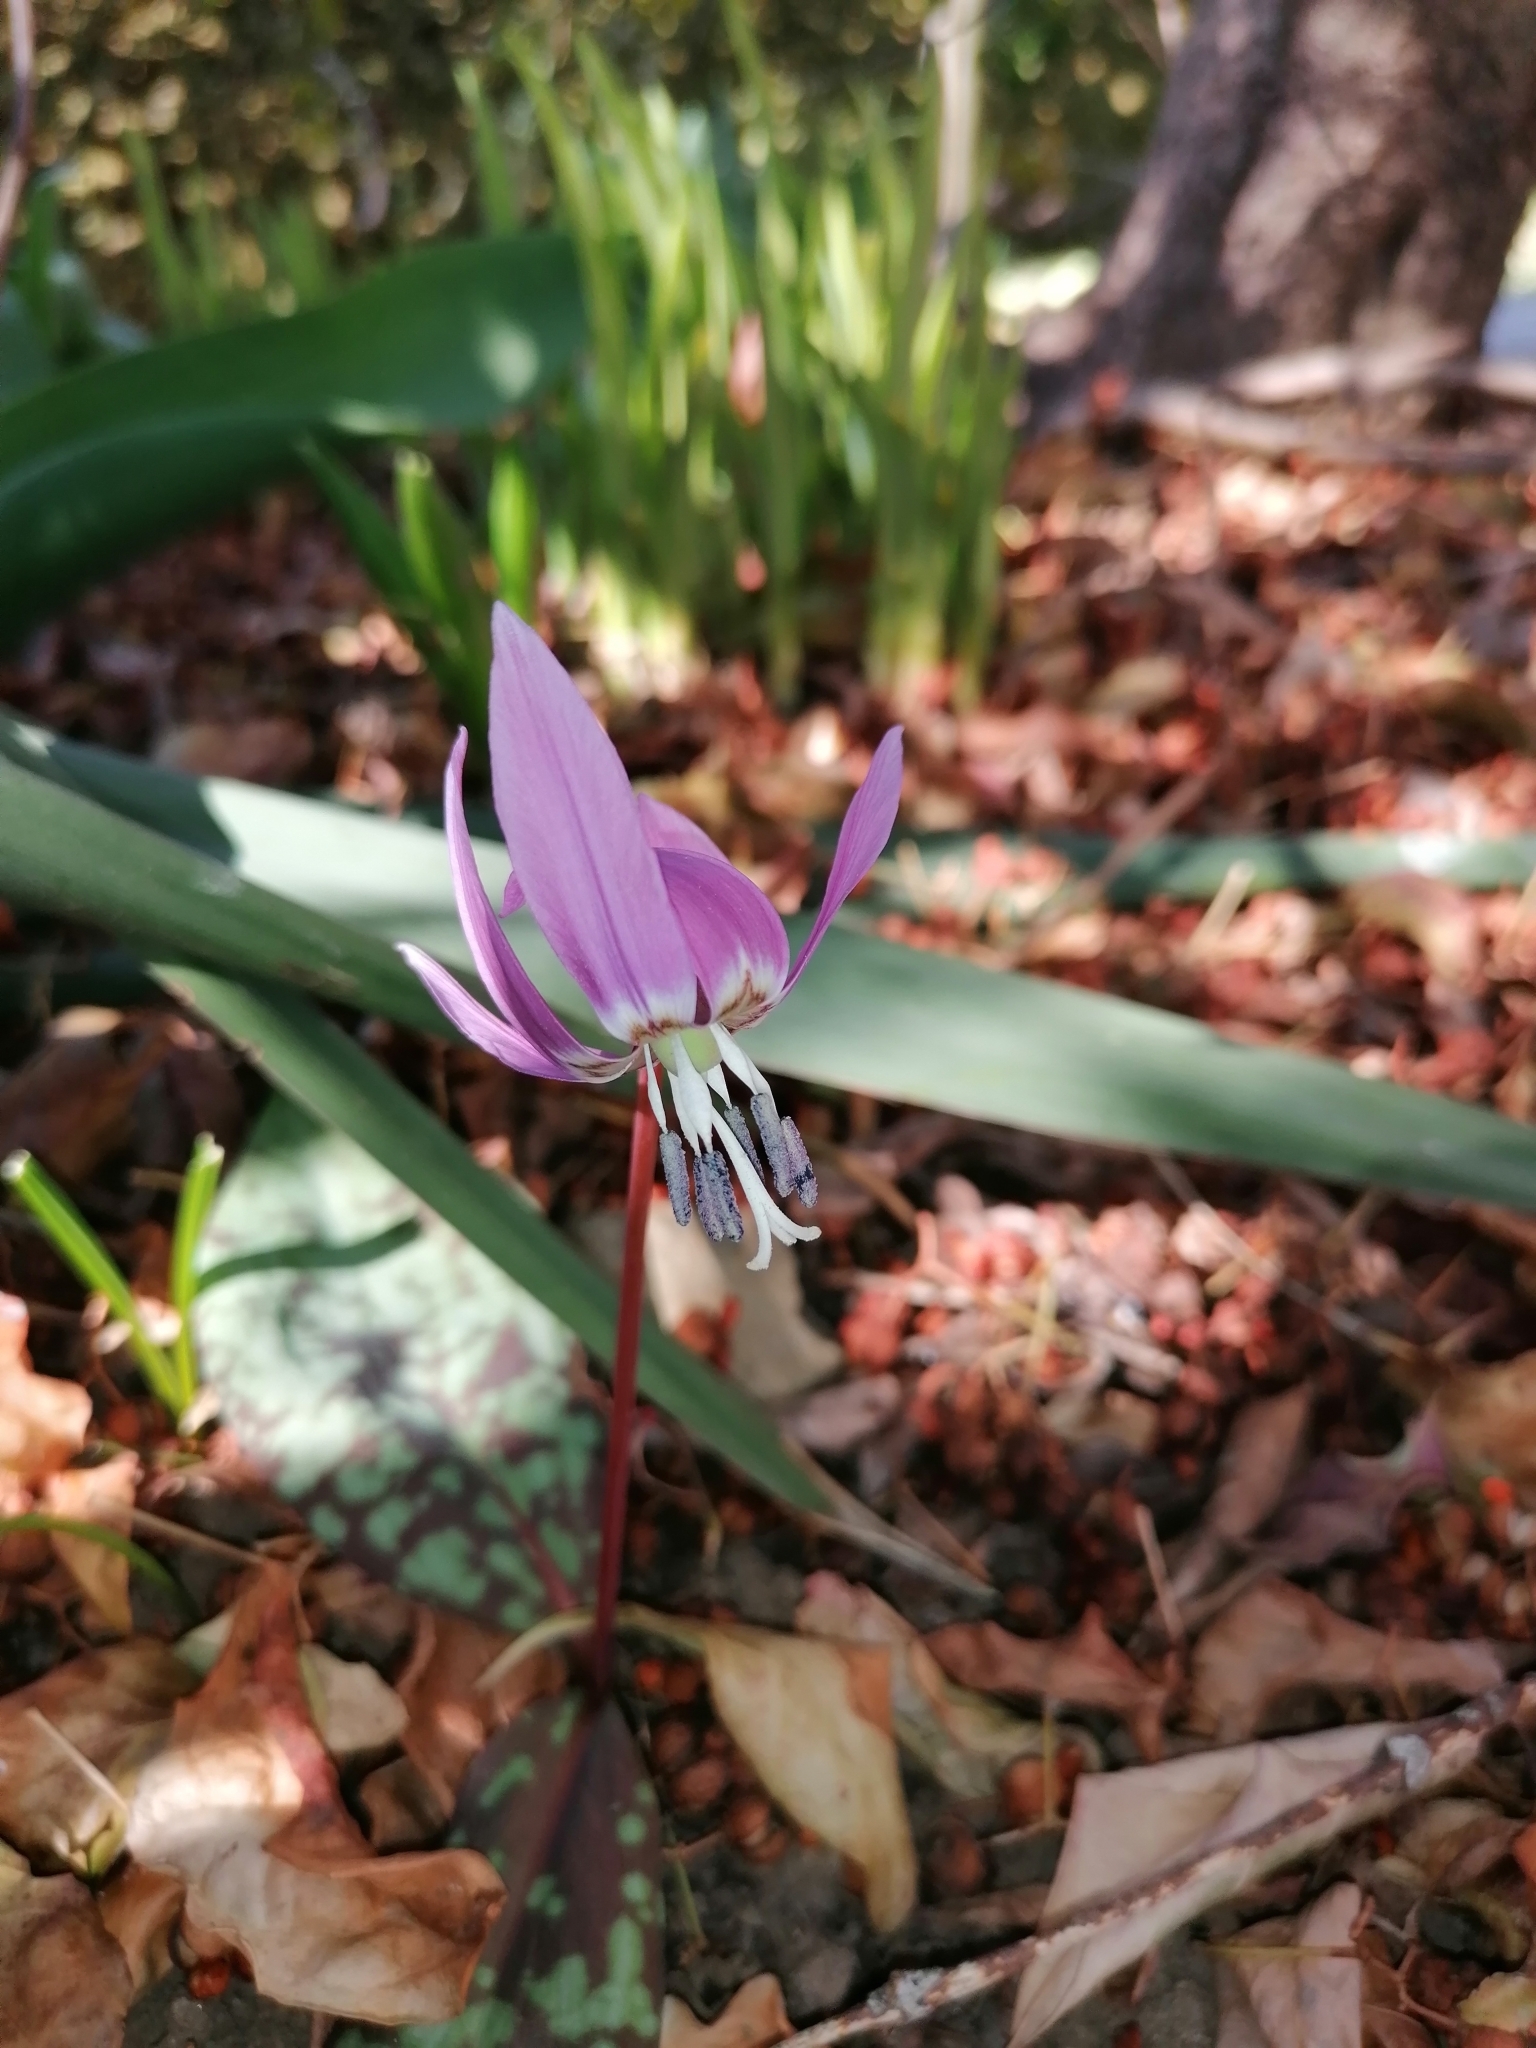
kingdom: Plantae
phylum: Tracheophyta
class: Liliopsida
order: Liliales
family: Liliaceae
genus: Erythronium
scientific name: Erythronium dens-canis
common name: Dog's-tooth-violet
